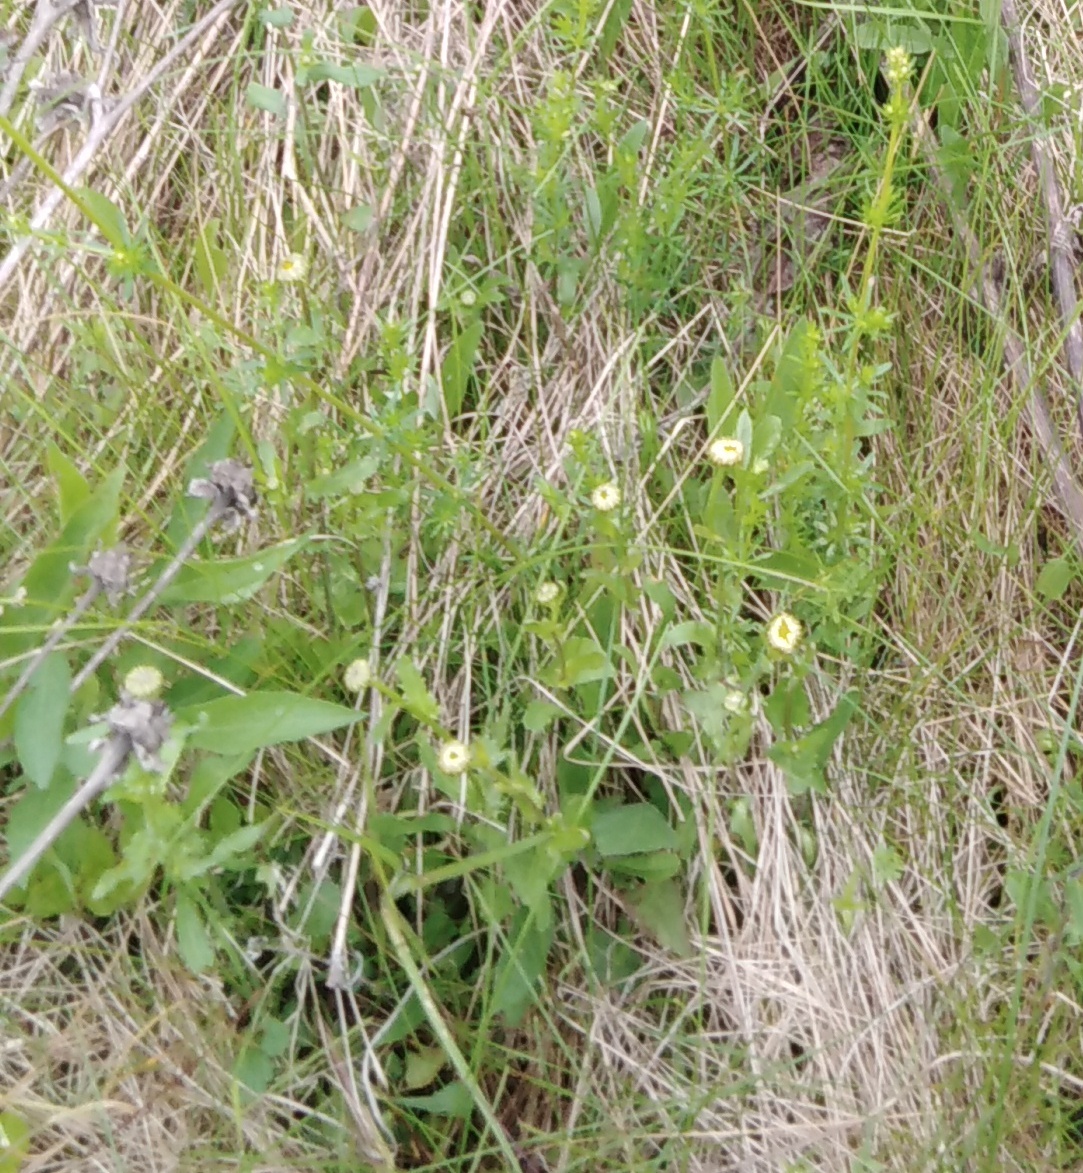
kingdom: Plantae
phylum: Tracheophyta
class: Magnoliopsida
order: Asterales
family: Asteraceae
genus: Leucanthemum
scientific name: Leucanthemum vulgare
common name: Oxeye daisy
